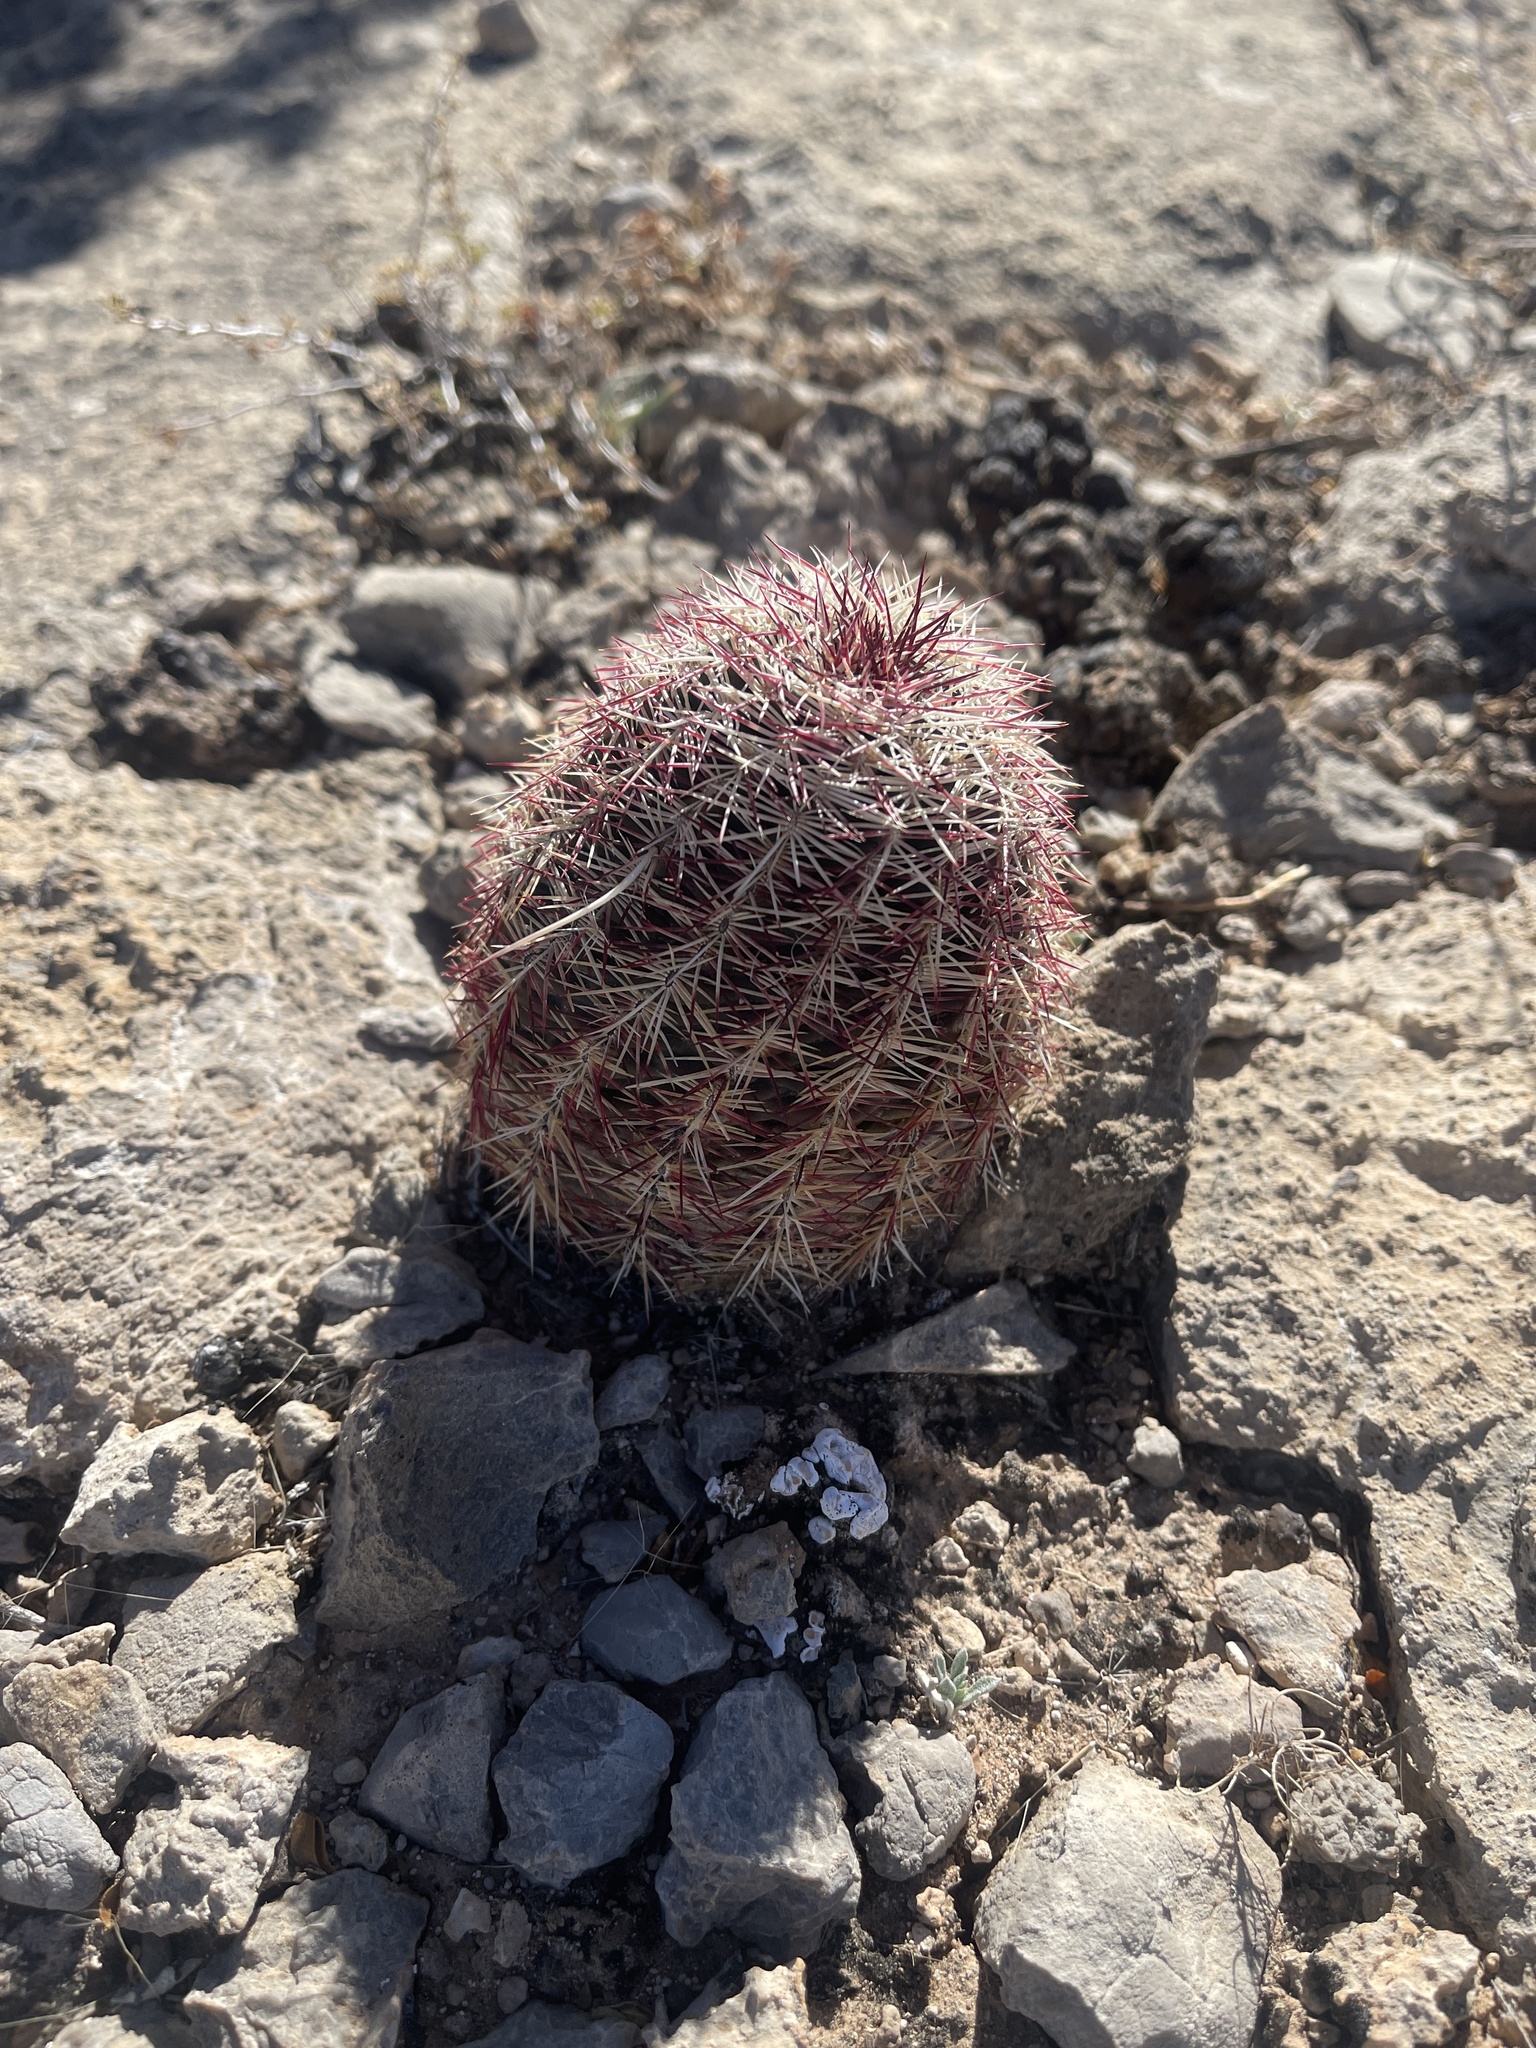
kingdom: Plantae
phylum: Tracheophyta
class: Magnoliopsida
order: Caryophyllales
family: Cactaceae
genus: Echinocereus
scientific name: Echinocereus viridiflorus
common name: Nylon hedgehog cactus
